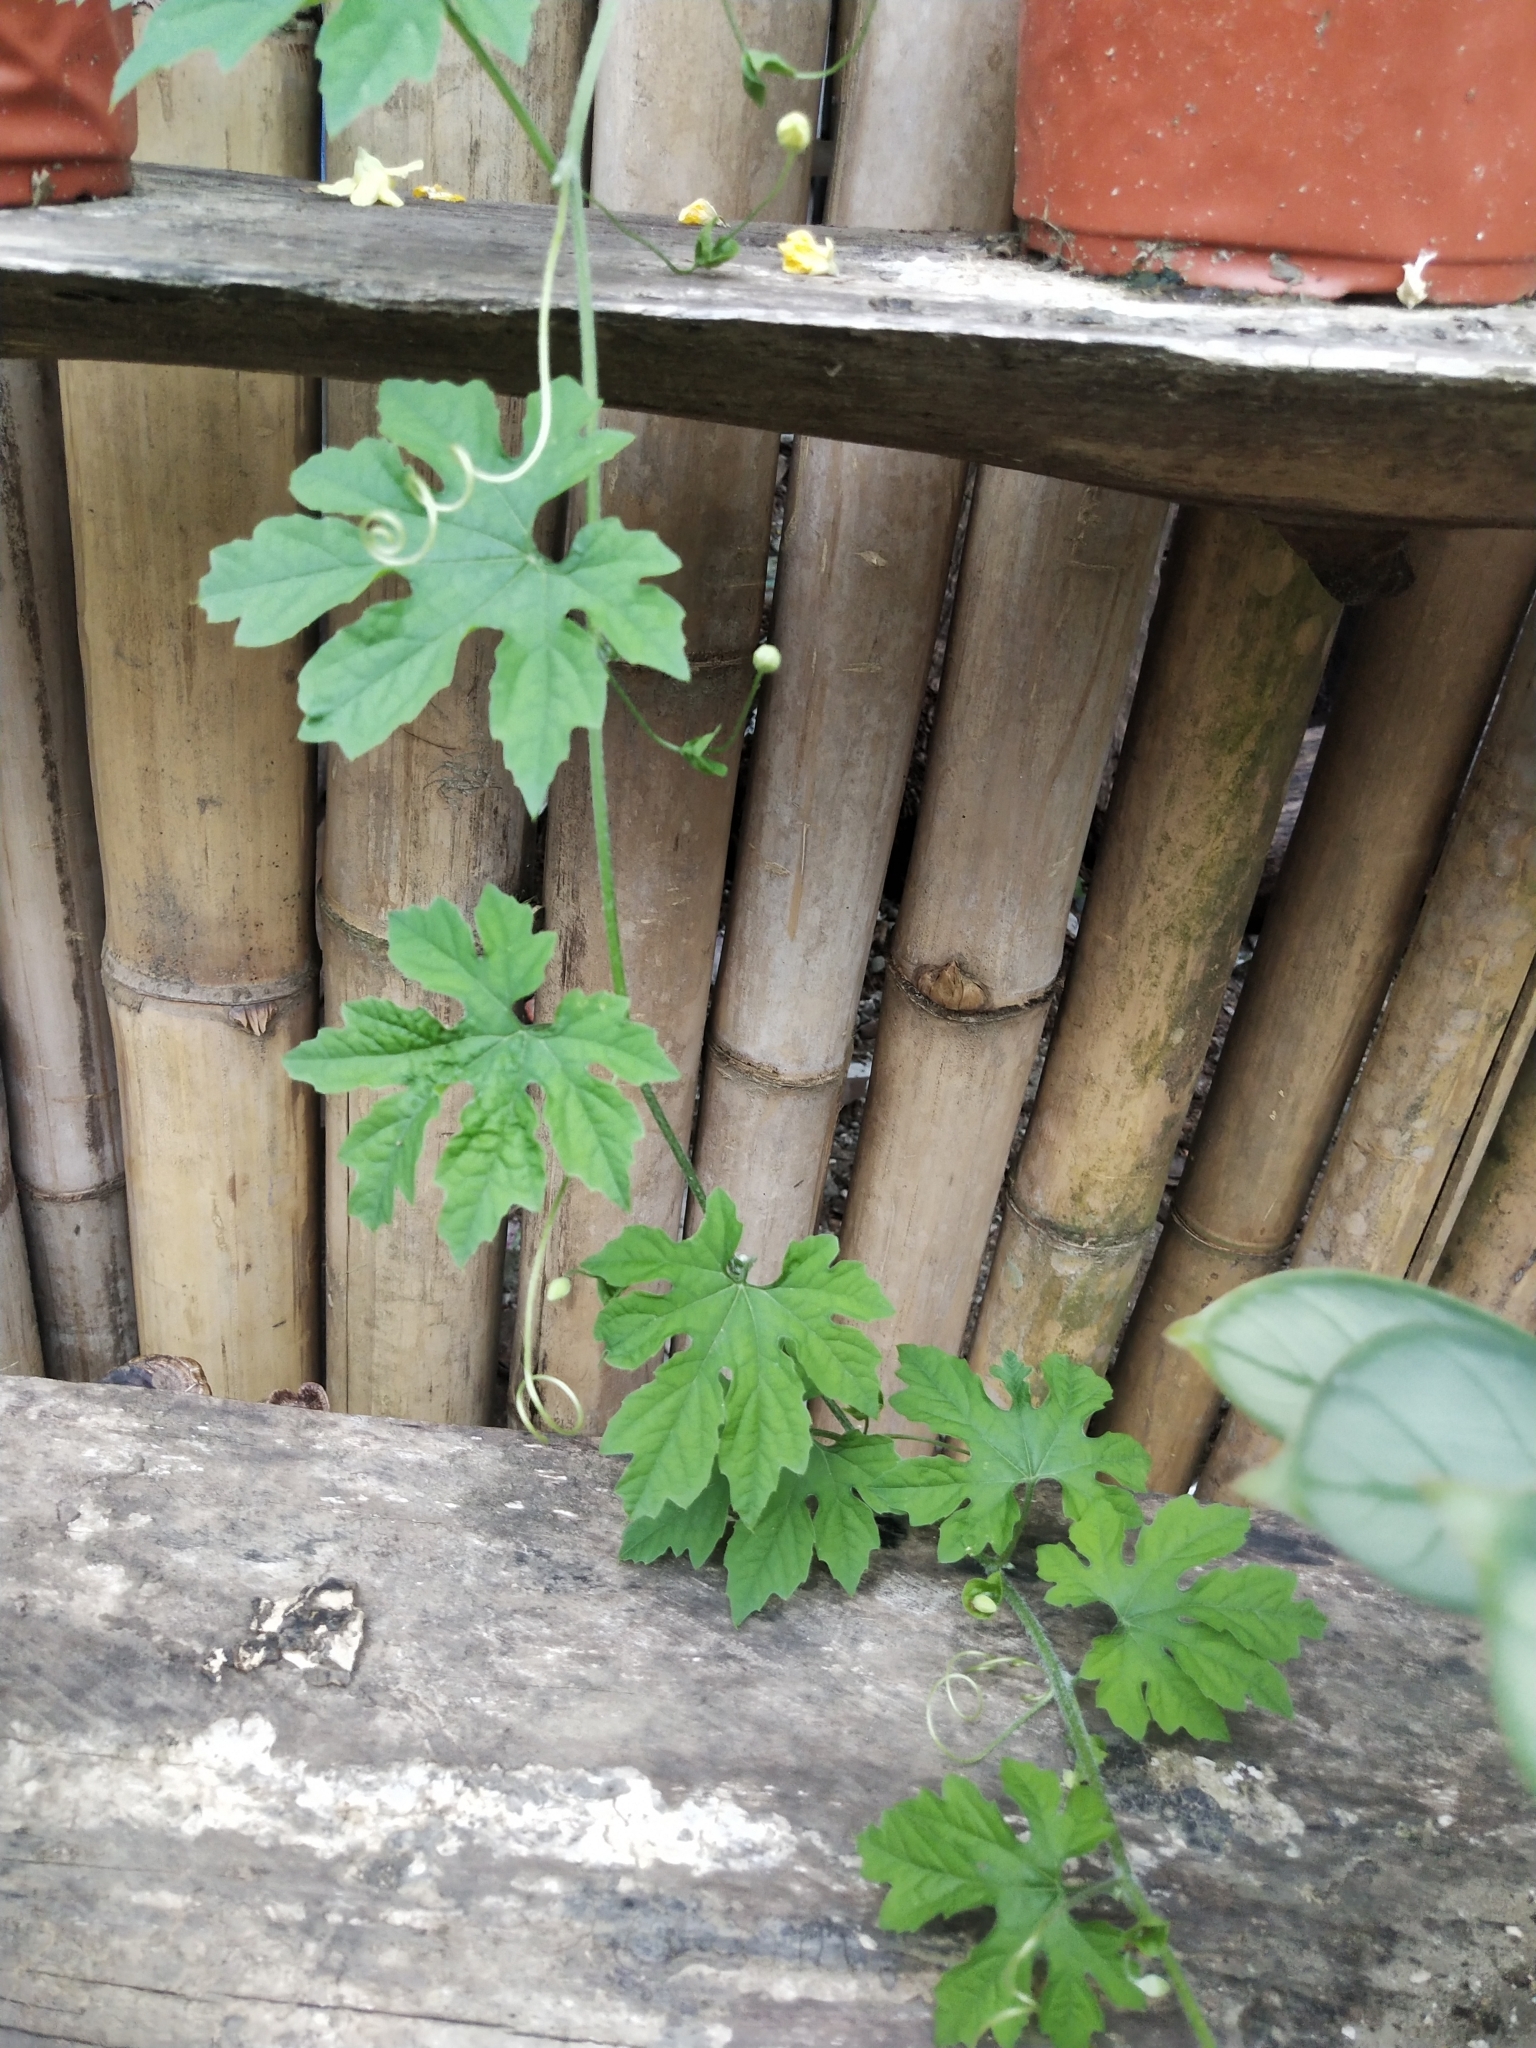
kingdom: Plantae
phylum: Tracheophyta
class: Magnoliopsida
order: Cucurbitales
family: Cucurbitaceae
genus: Momordica
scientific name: Momordica charantia
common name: Balsampear
